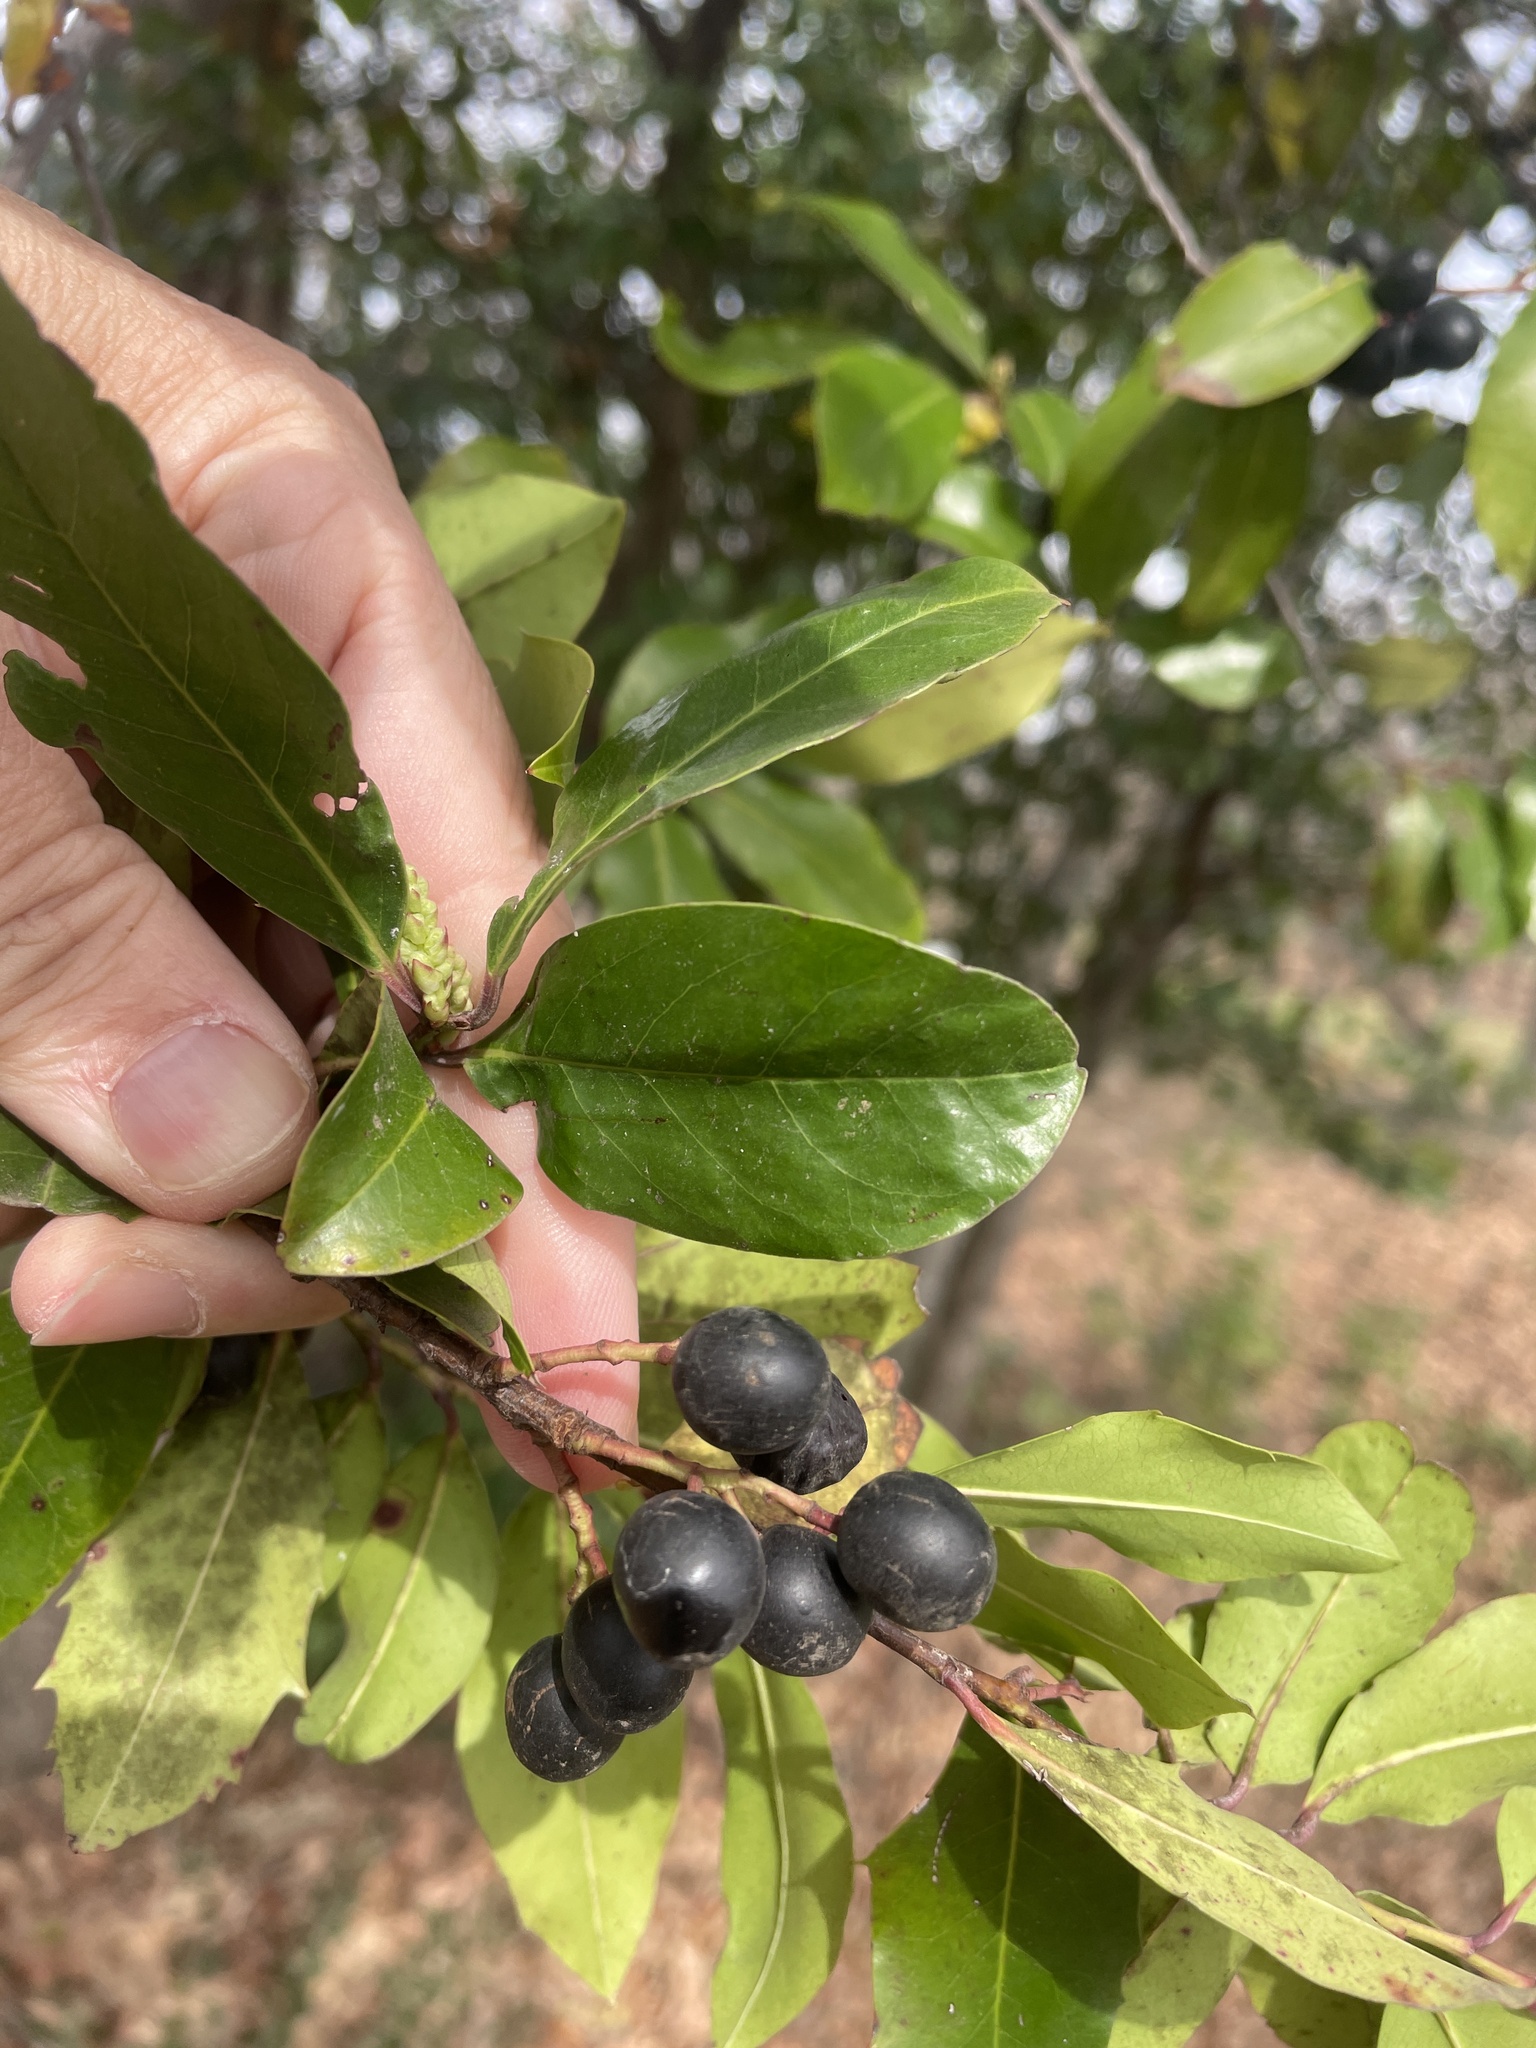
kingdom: Plantae
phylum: Tracheophyta
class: Magnoliopsida
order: Rosales
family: Rosaceae
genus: Prunus
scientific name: Prunus caroliniana
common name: Carolina laurel cherry
